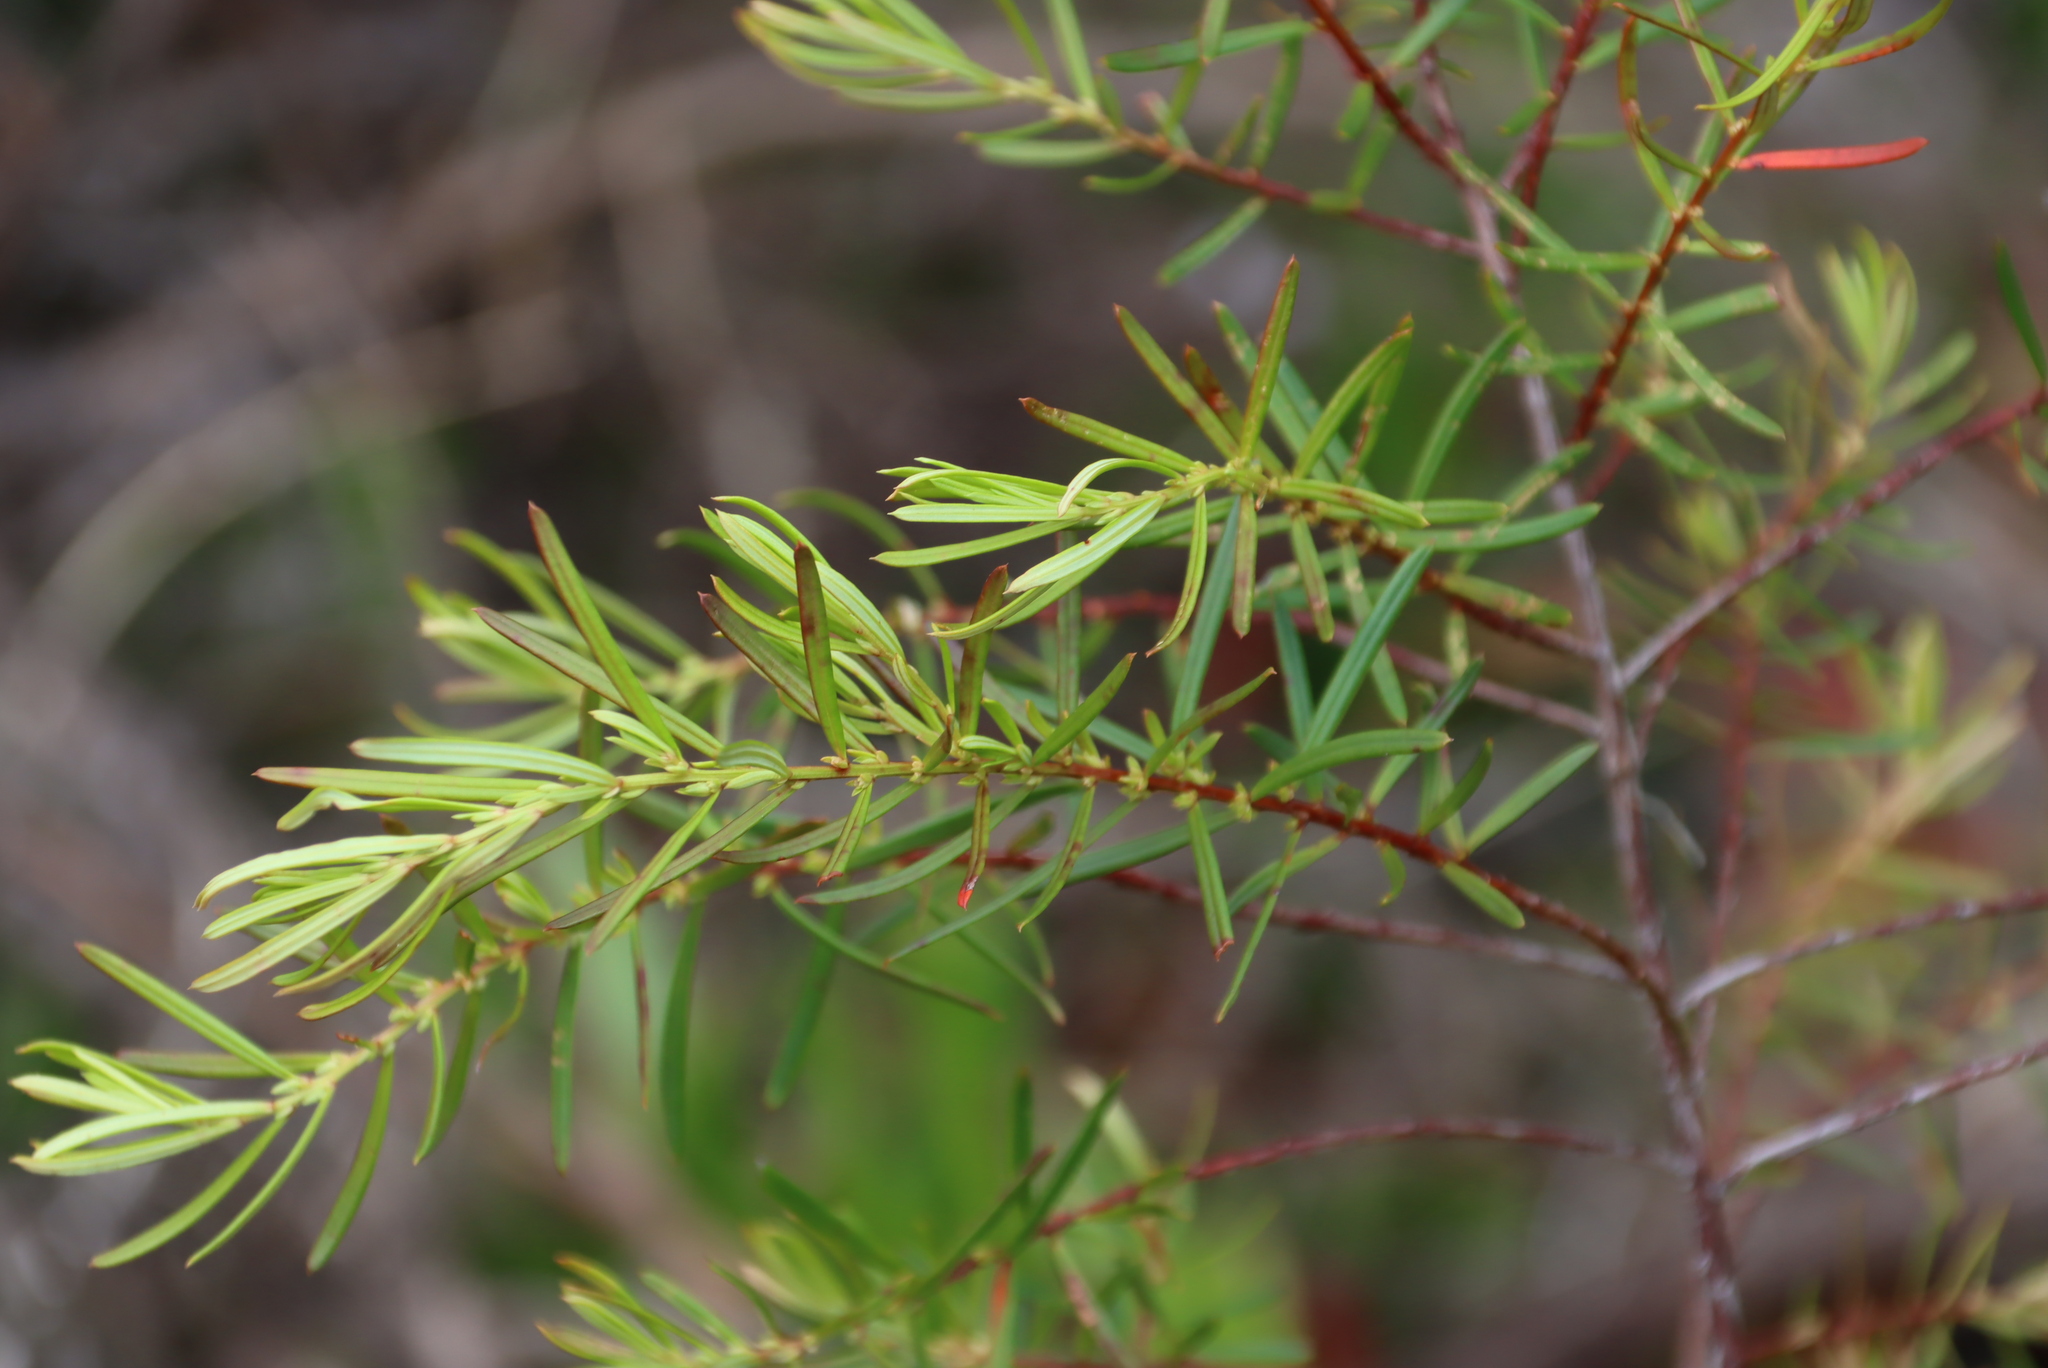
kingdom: Plantae
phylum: Tracheophyta
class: Magnoliopsida
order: Malpighiales
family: Peraceae
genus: Clutia
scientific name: Clutia ericoides
